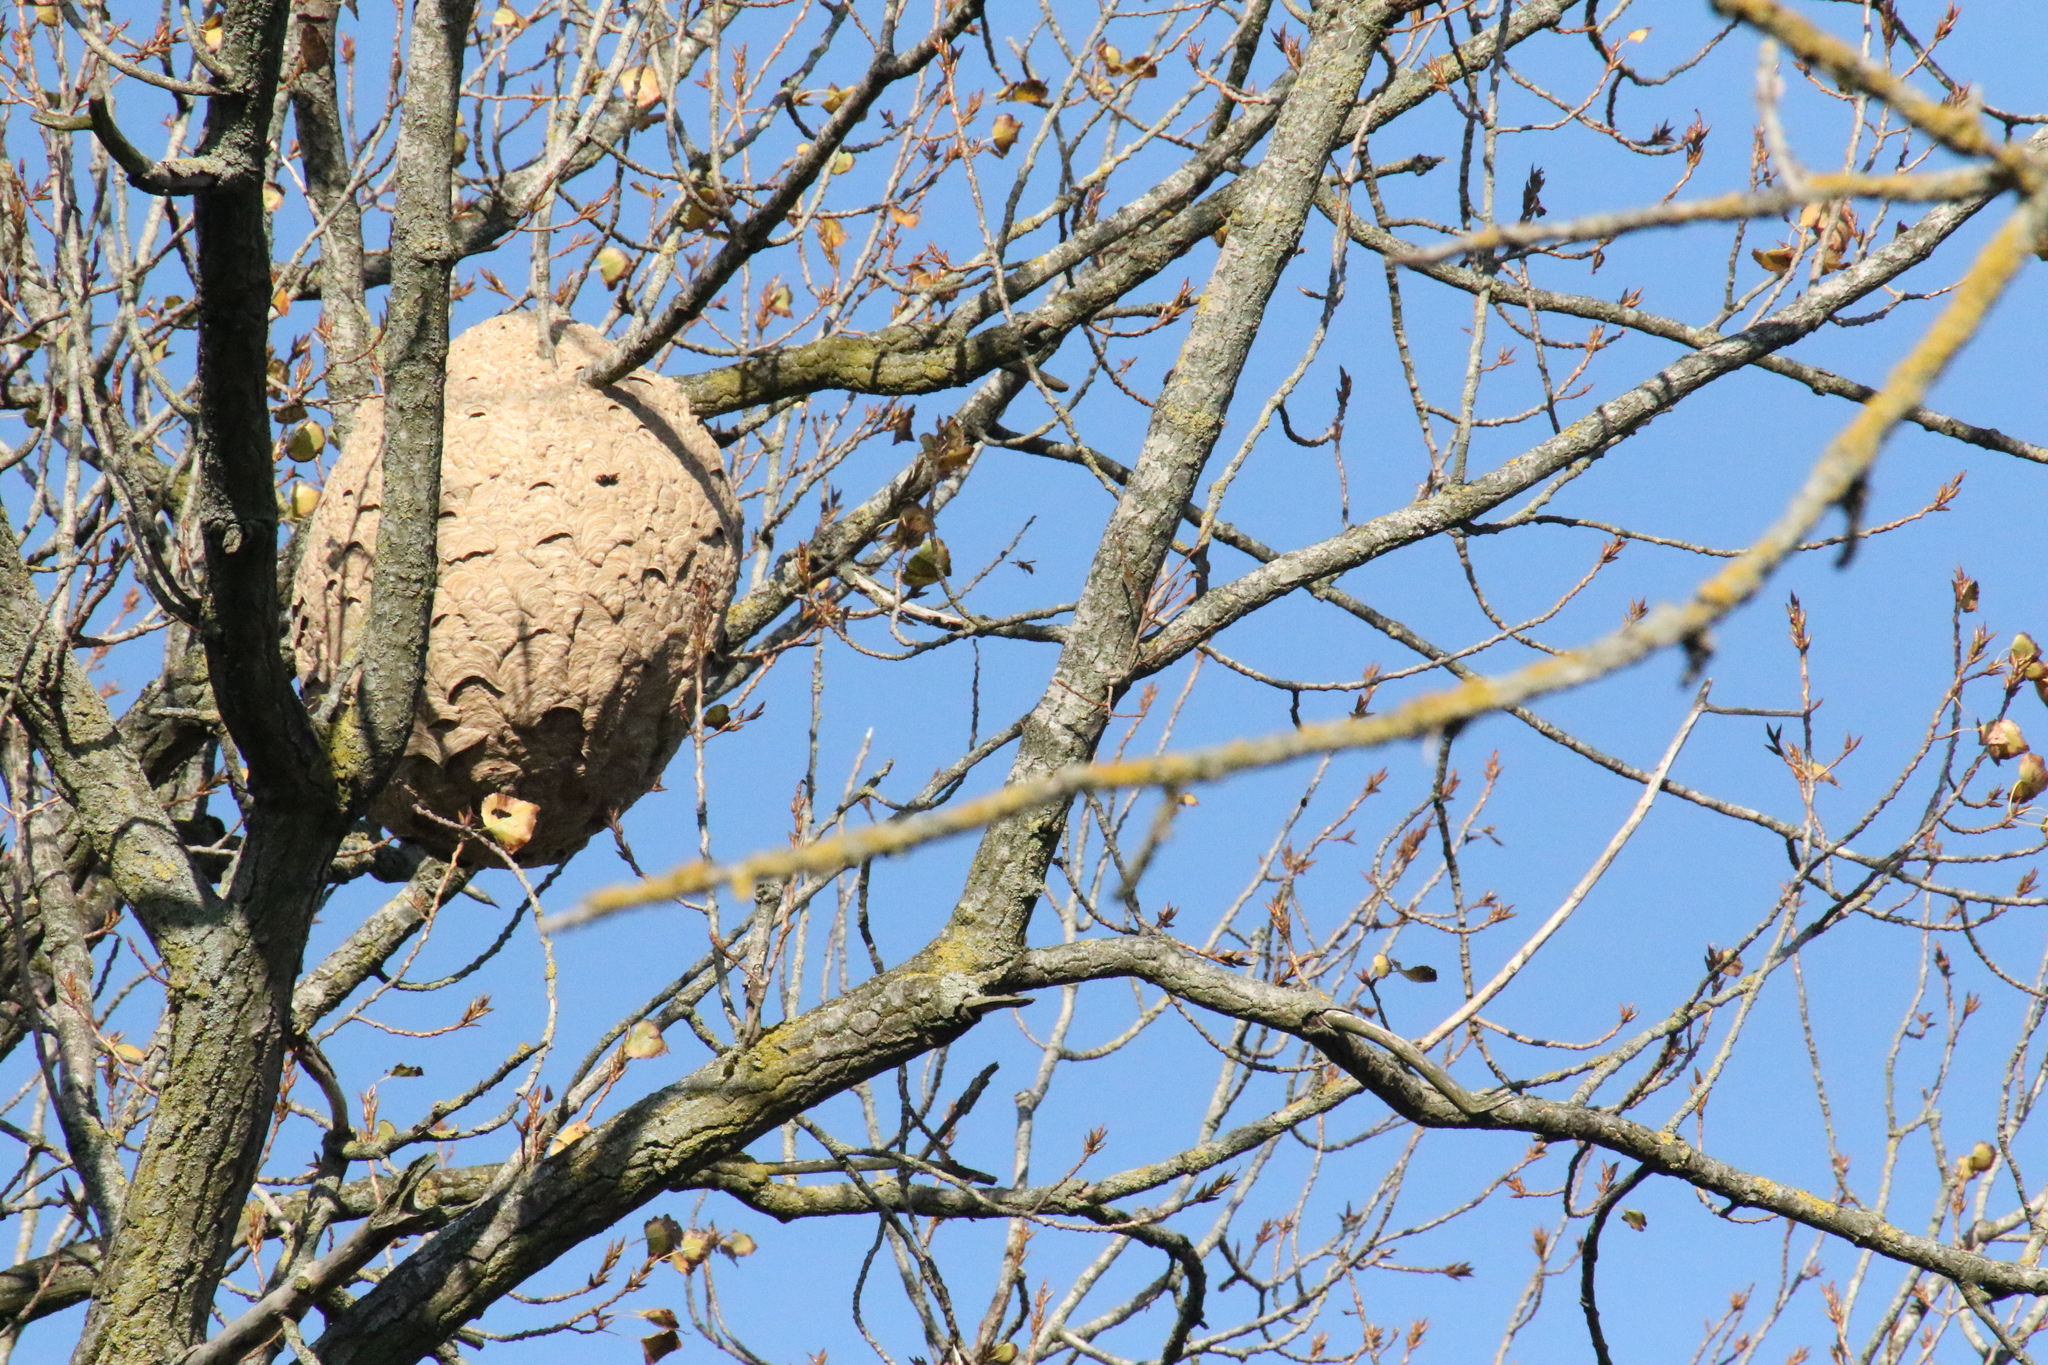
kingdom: Animalia
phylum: Arthropoda
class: Insecta
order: Hymenoptera
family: Vespidae
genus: Vespa
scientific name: Vespa velutina
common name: Asian hornet
